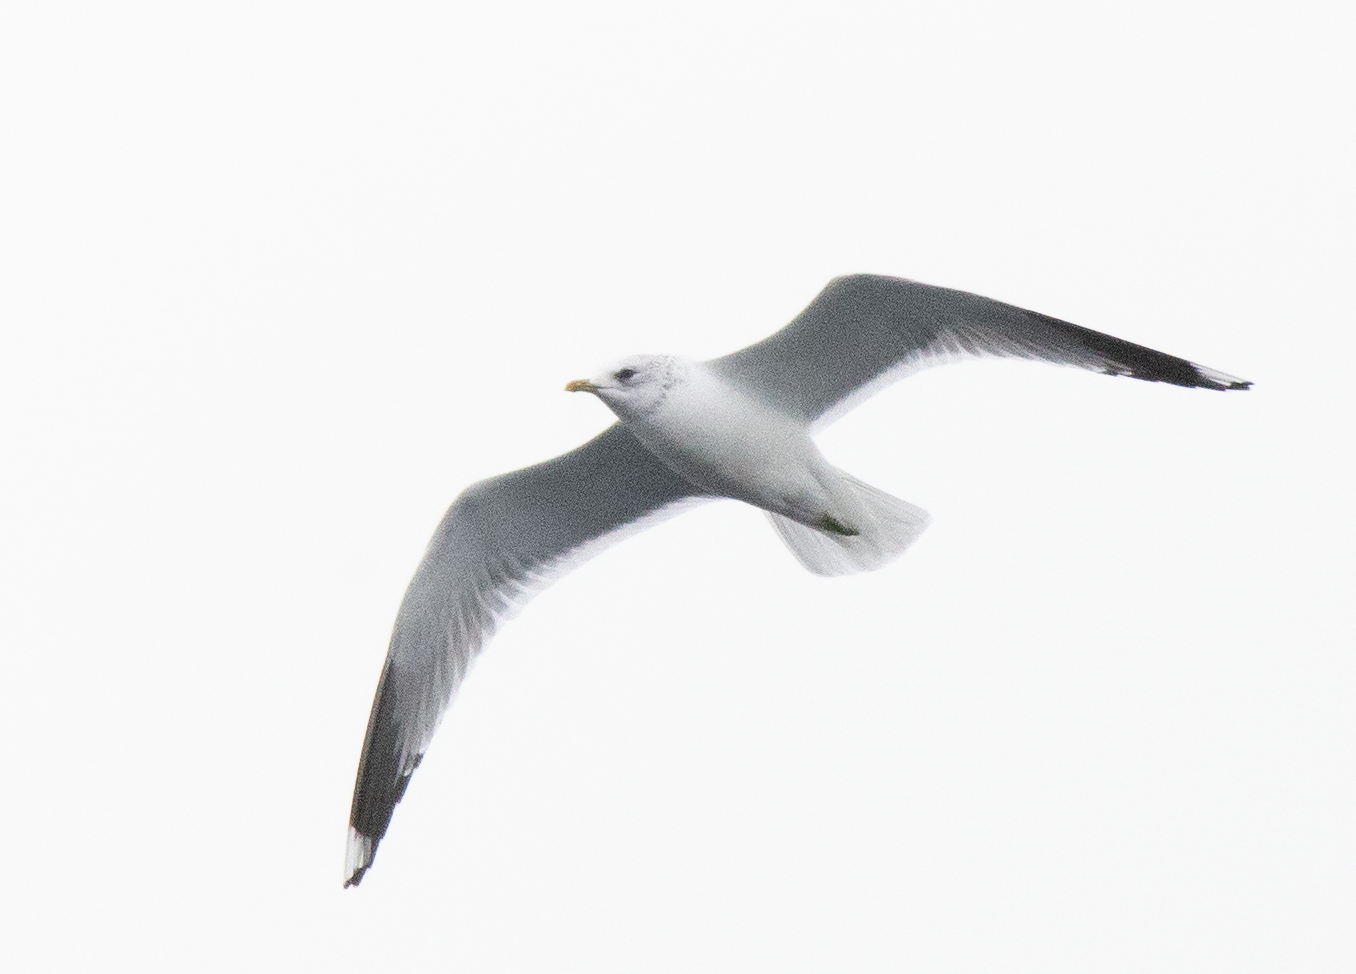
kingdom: Animalia
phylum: Chordata
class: Aves
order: Charadriiformes
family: Laridae
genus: Larus
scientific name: Larus canus
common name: Mew gull
